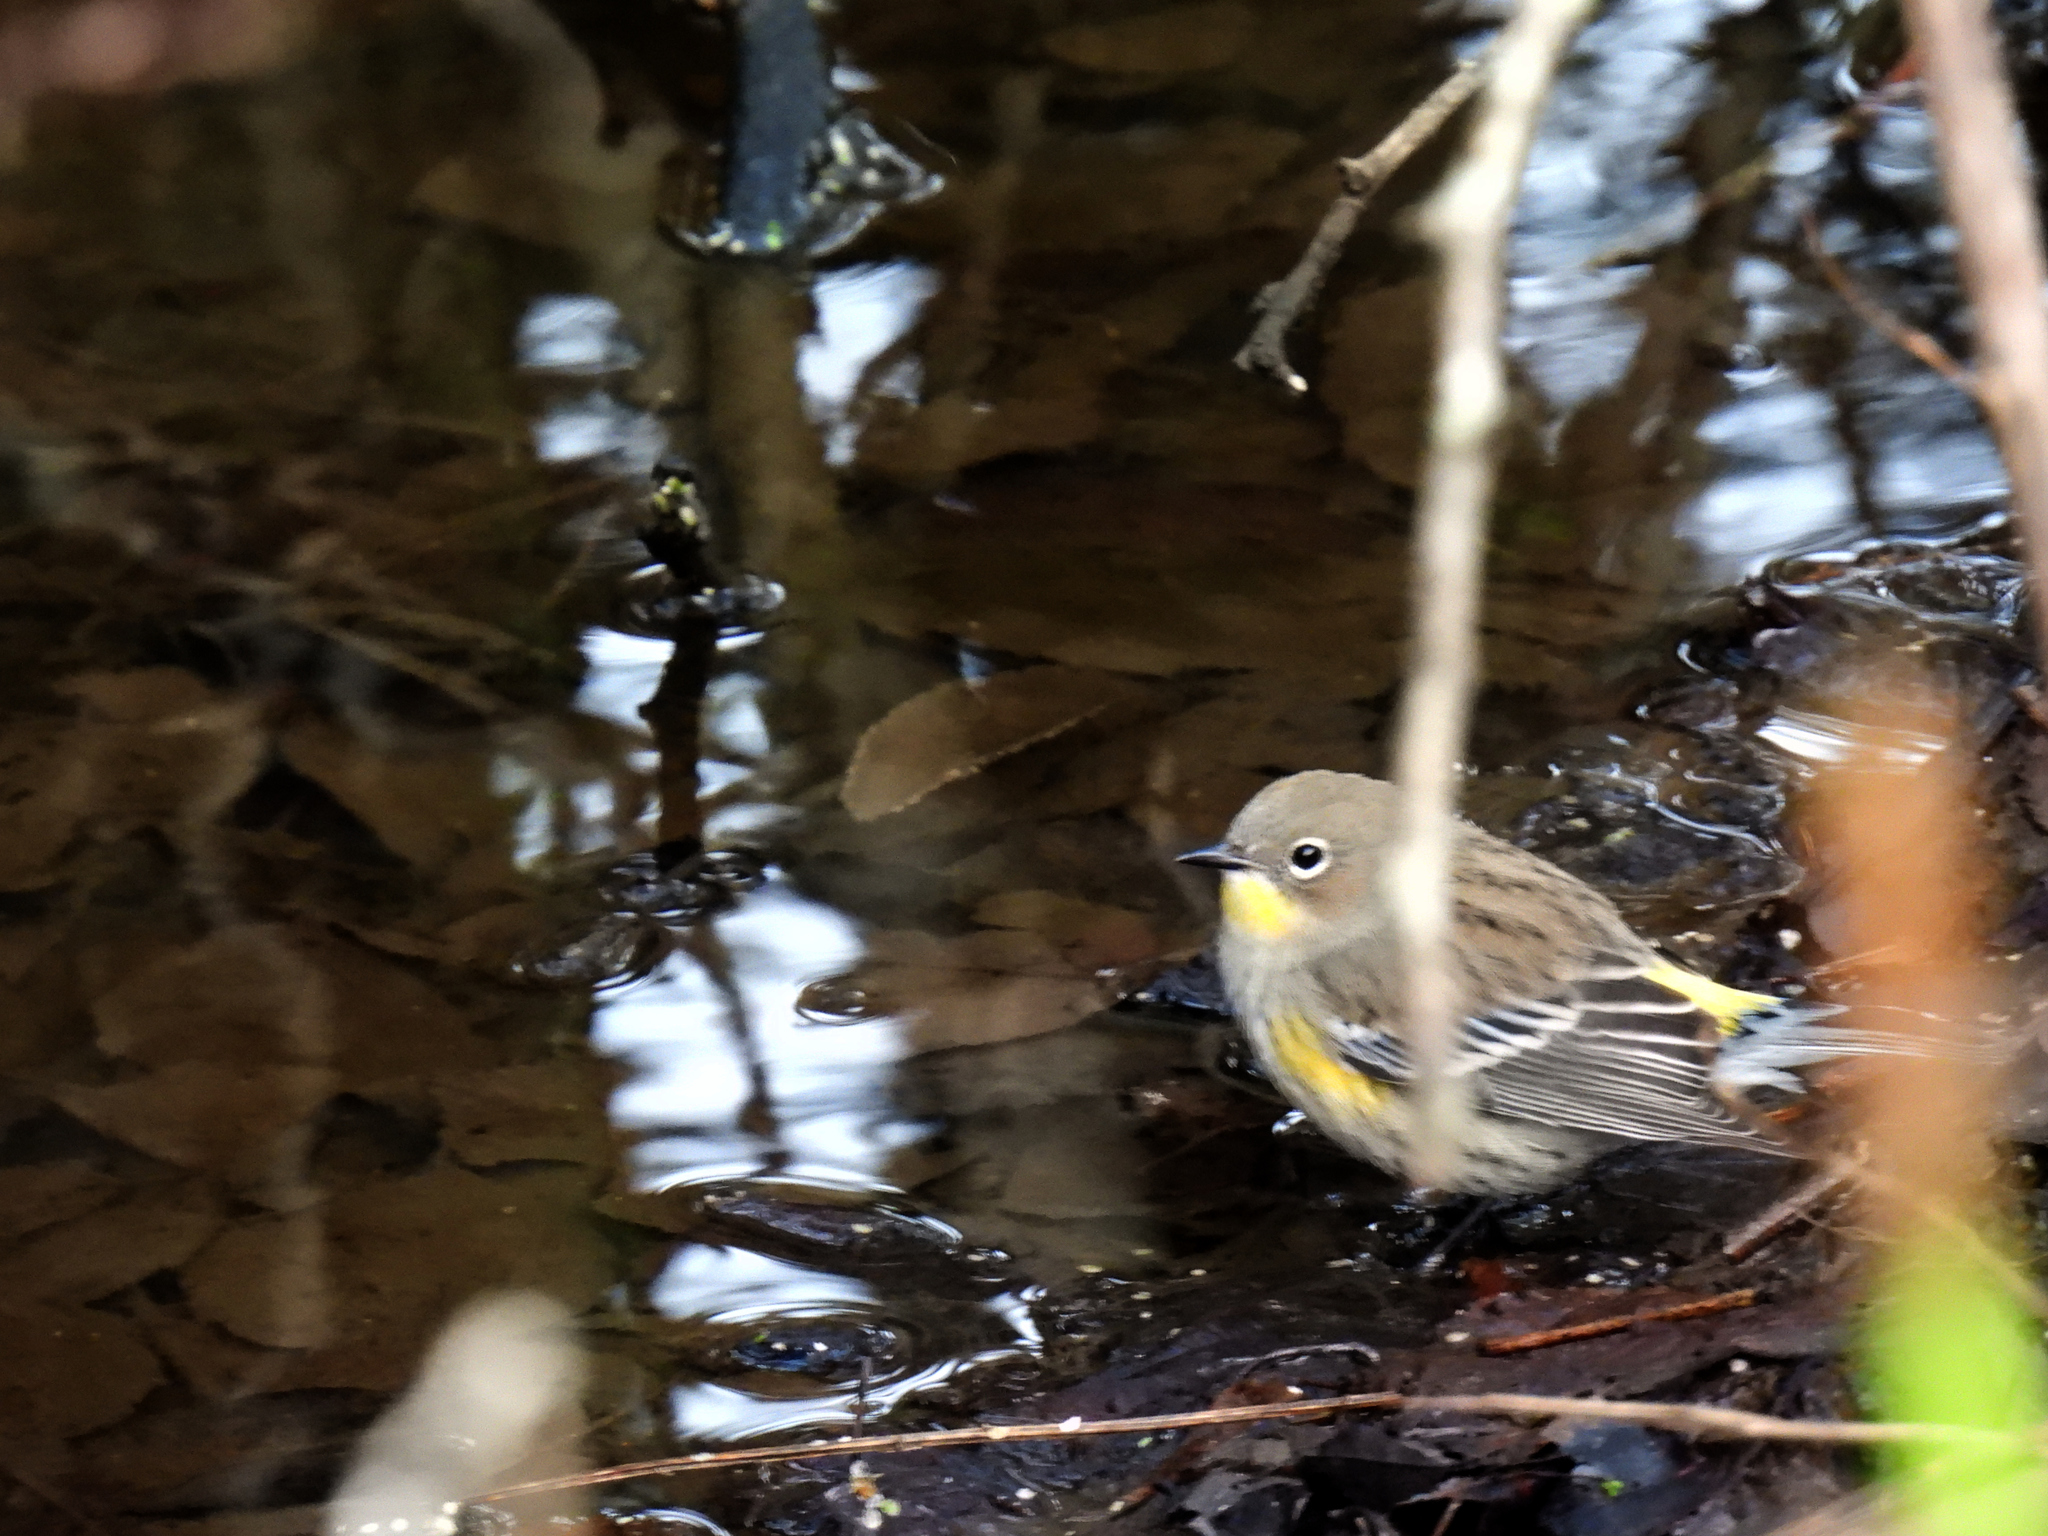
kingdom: Animalia
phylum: Chordata
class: Aves
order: Passeriformes
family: Parulidae
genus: Setophaga
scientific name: Setophaga coronata
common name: Myrtle warbler
